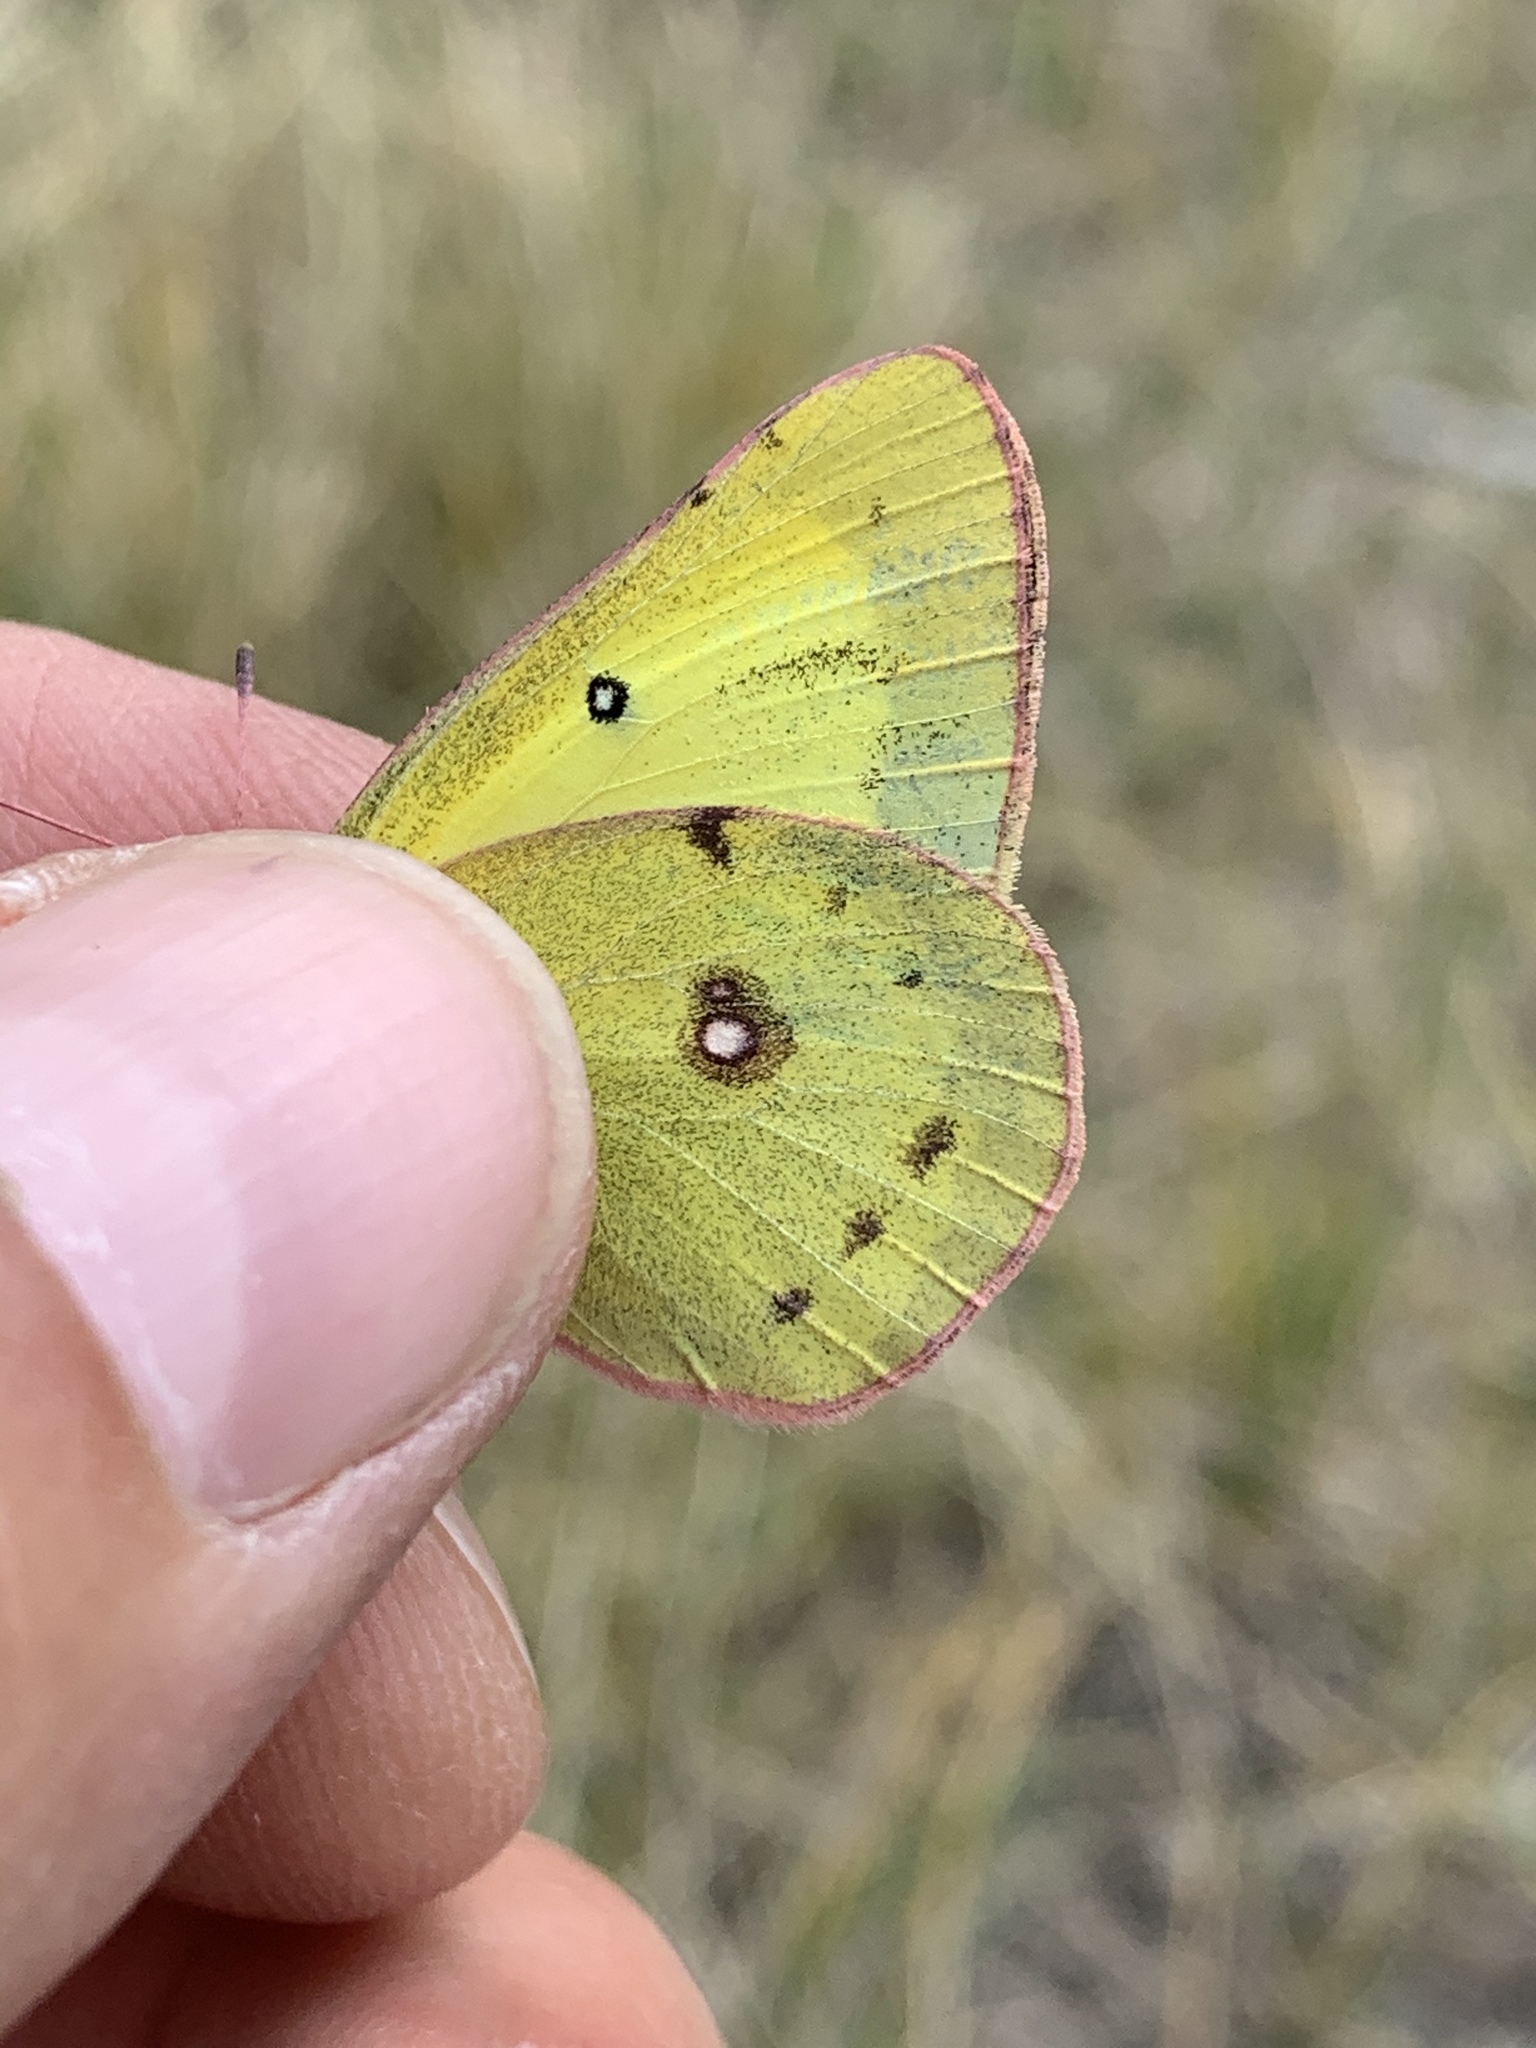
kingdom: Animalia
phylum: Arthropoda
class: Insecta
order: Lepidoptera
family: Pieridae
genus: Colias
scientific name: Colias philodice
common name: Clouded sulphur
